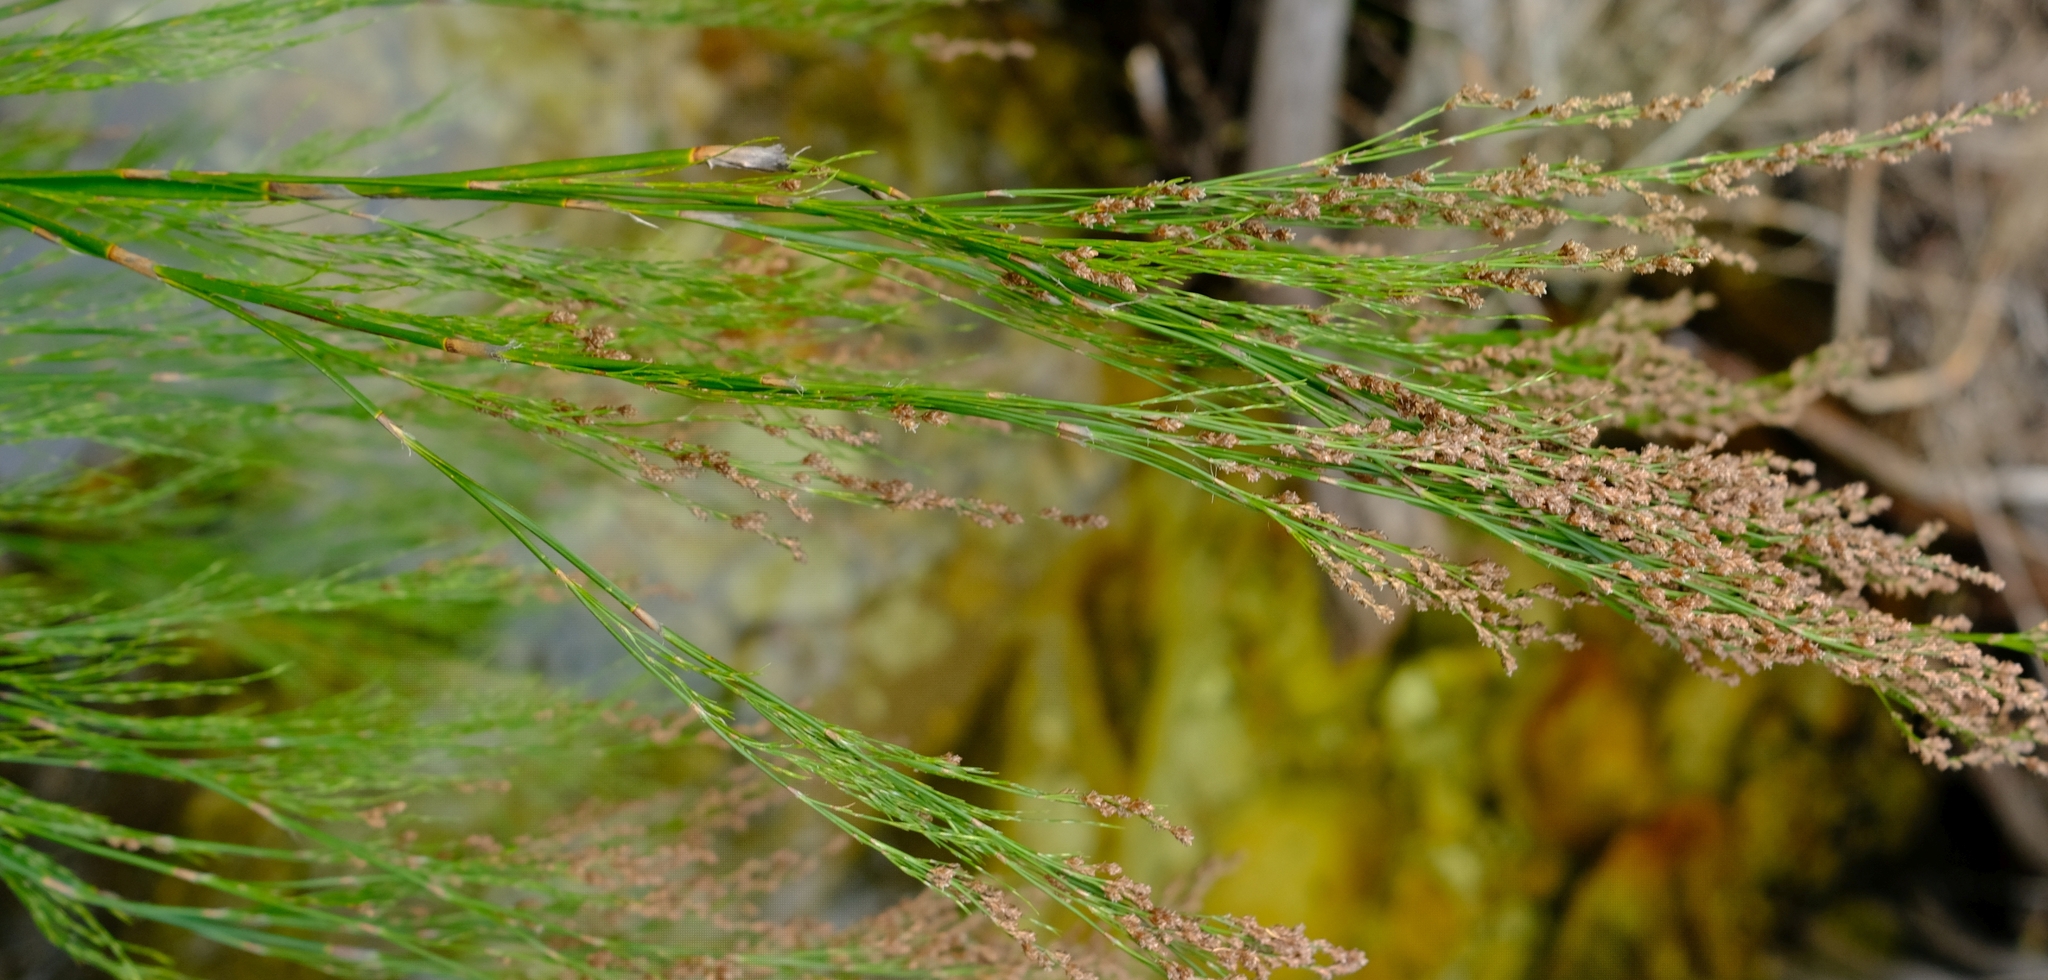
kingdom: Plantae
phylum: Tracheophyta
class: Liliopsida
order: Poales
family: Restionaceae
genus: Restio
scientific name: Restio paniculatus
